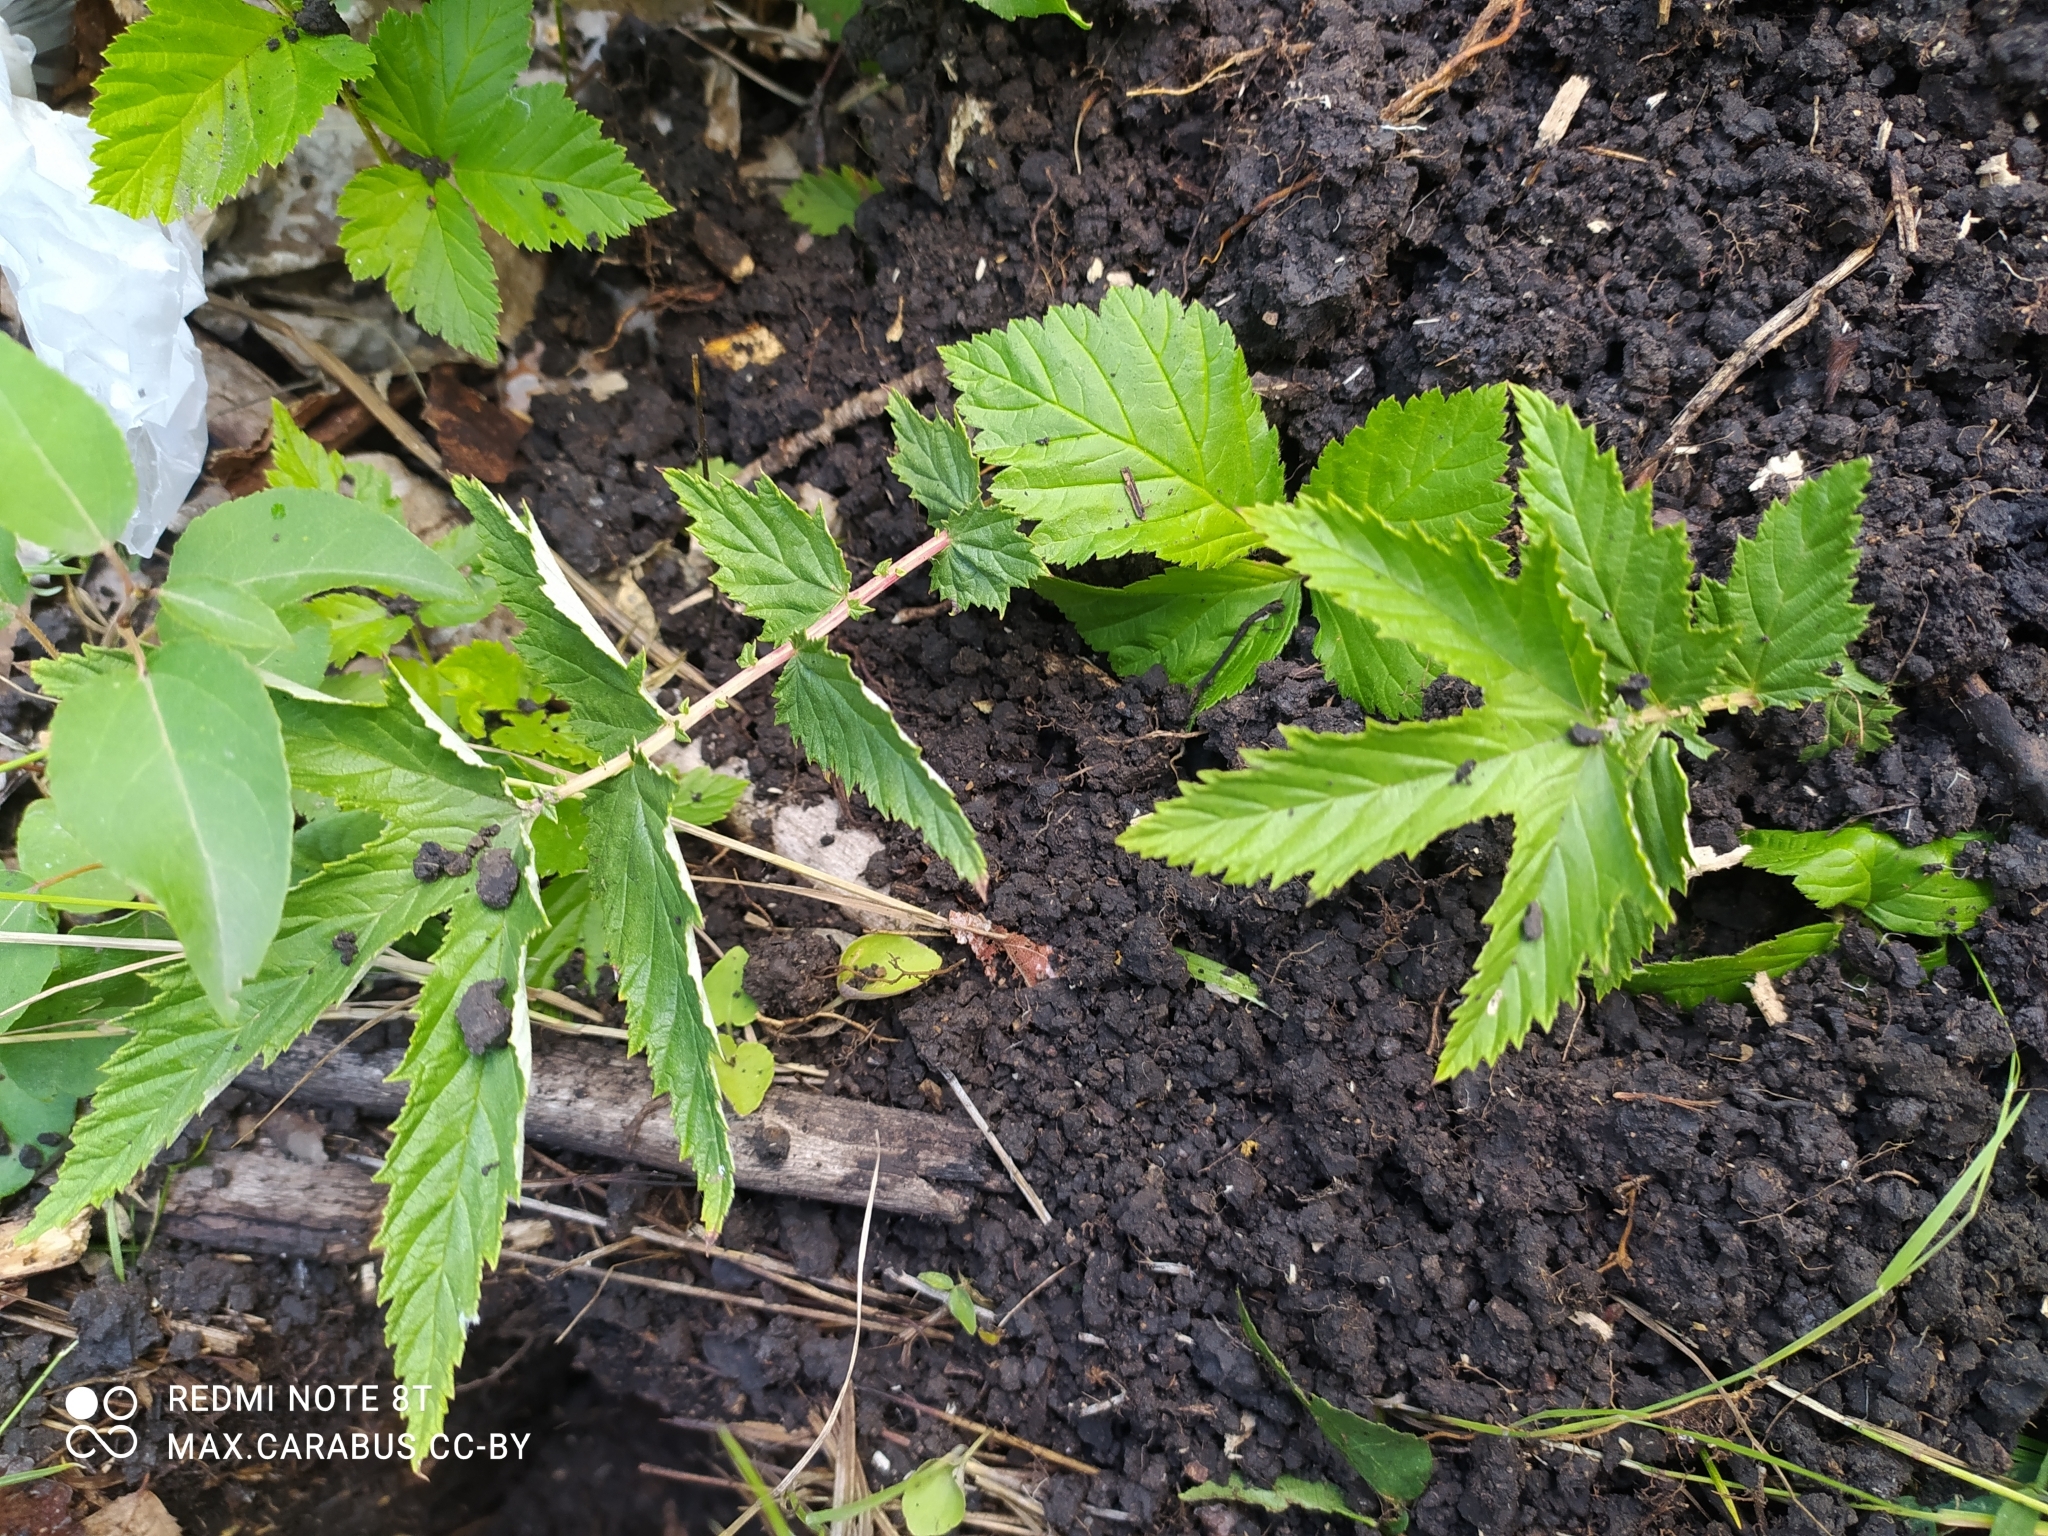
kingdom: Plantae
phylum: Tracheophyta
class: Magnoliopsida
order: Rosales
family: Rosaceae
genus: Filipendula
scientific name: Filipendula ulmaria
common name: Meadowsweet
